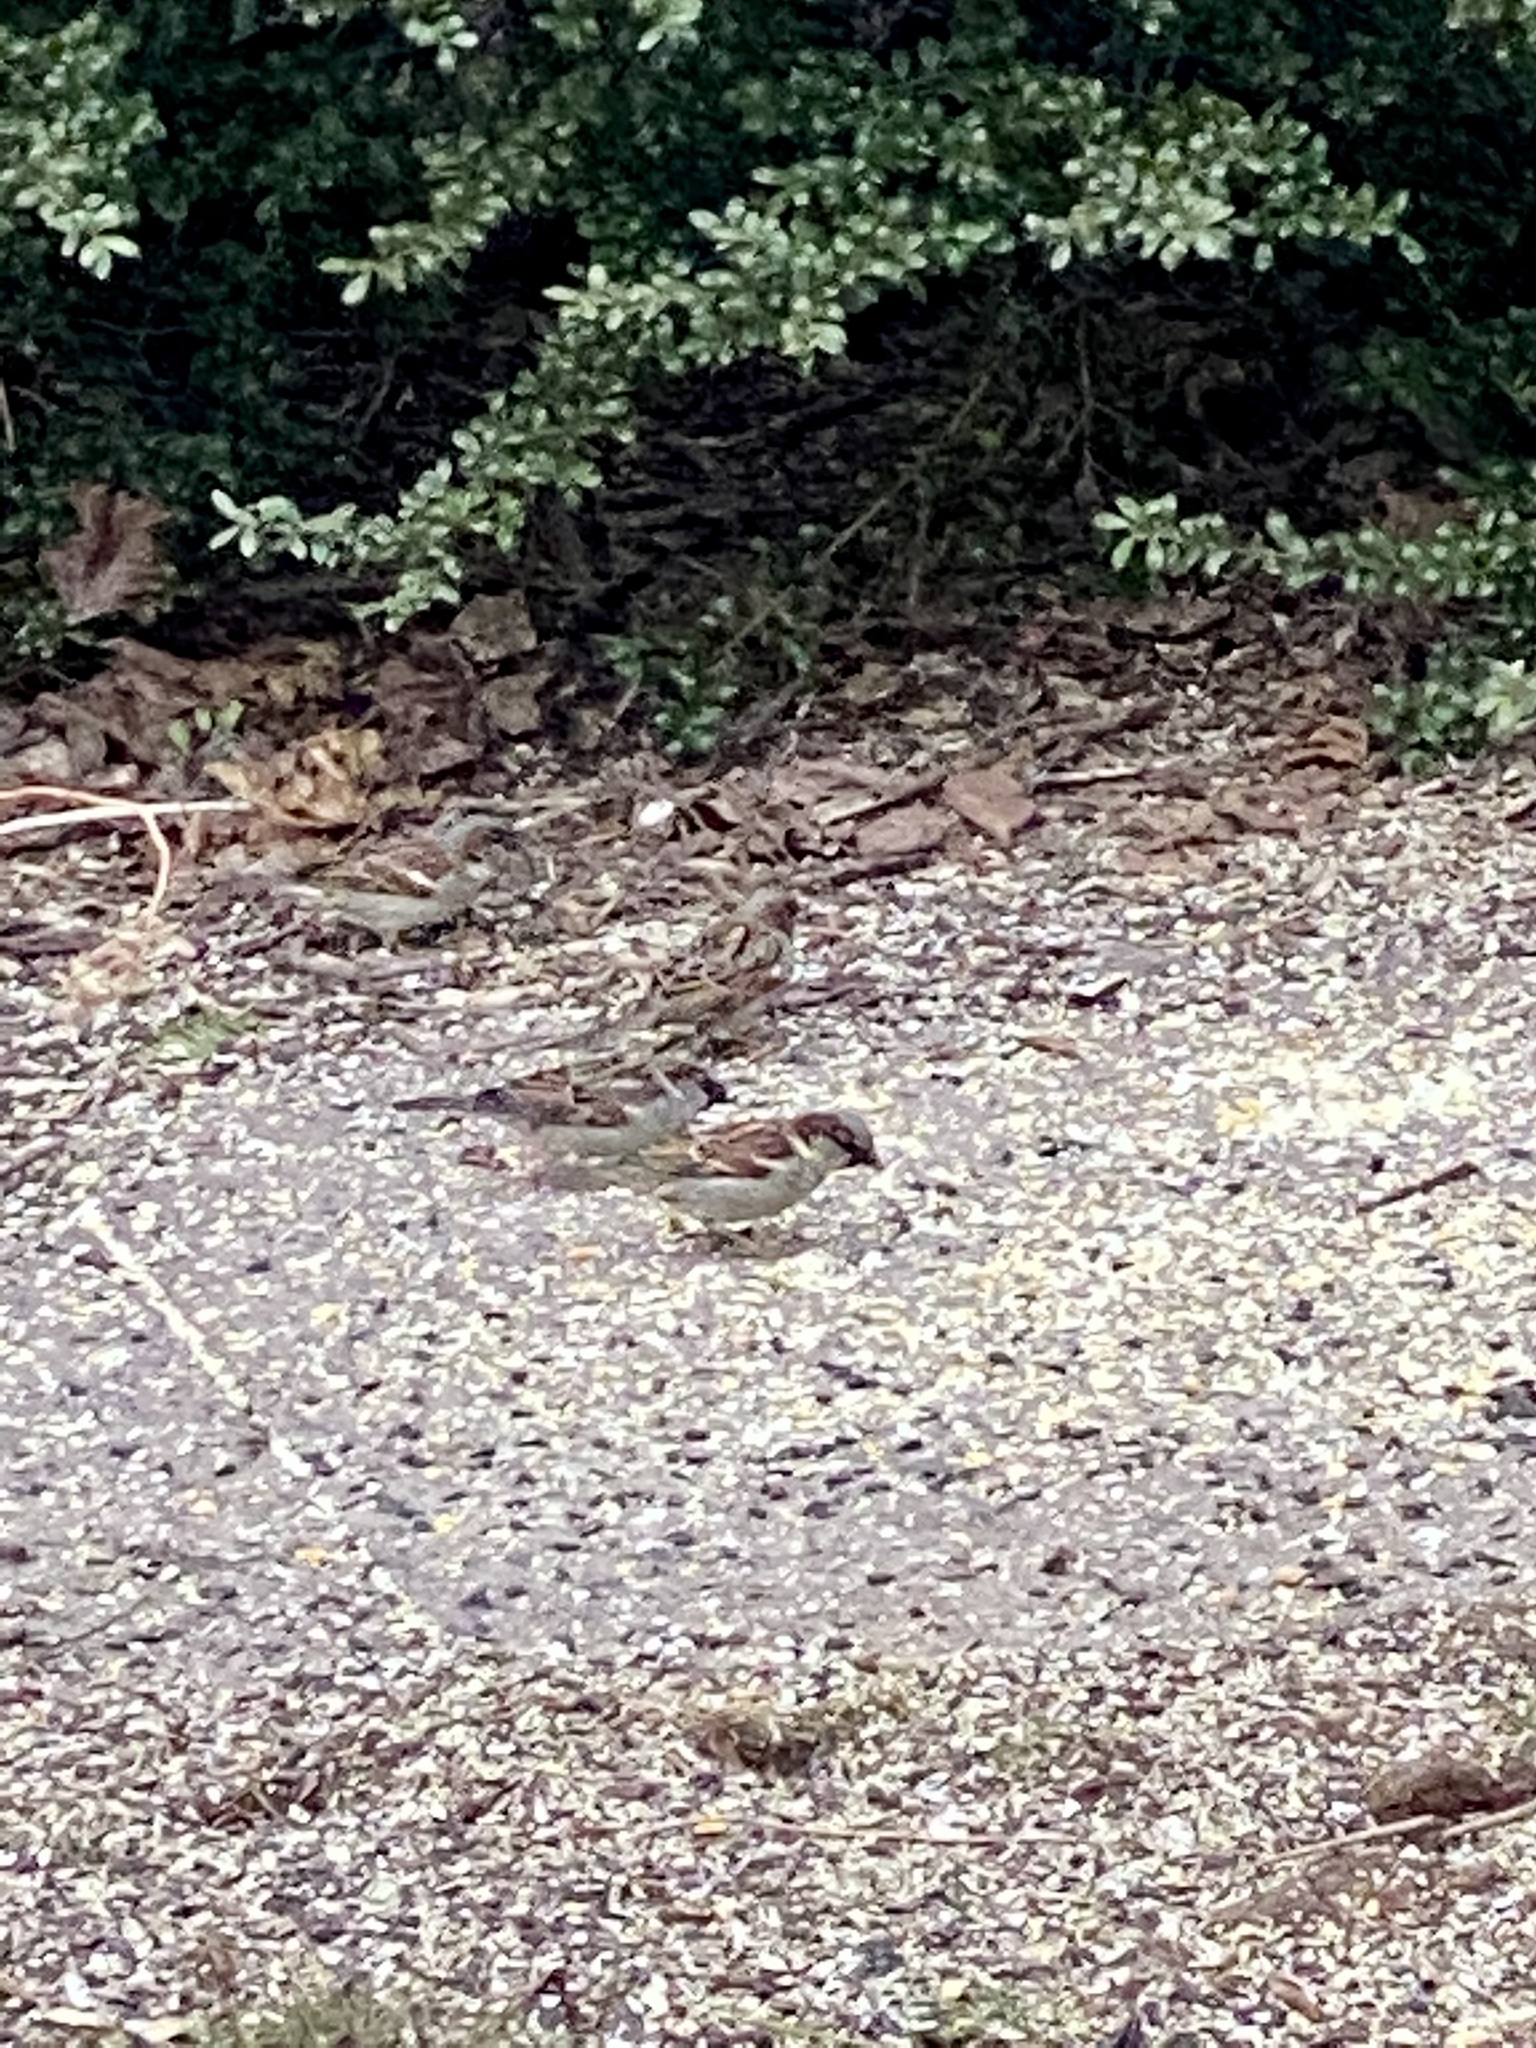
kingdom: Animalia
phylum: Chordata
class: Aves
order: Passeriformes
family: Passeridae
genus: Passer
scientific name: Passer domesticus
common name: House sparrow
